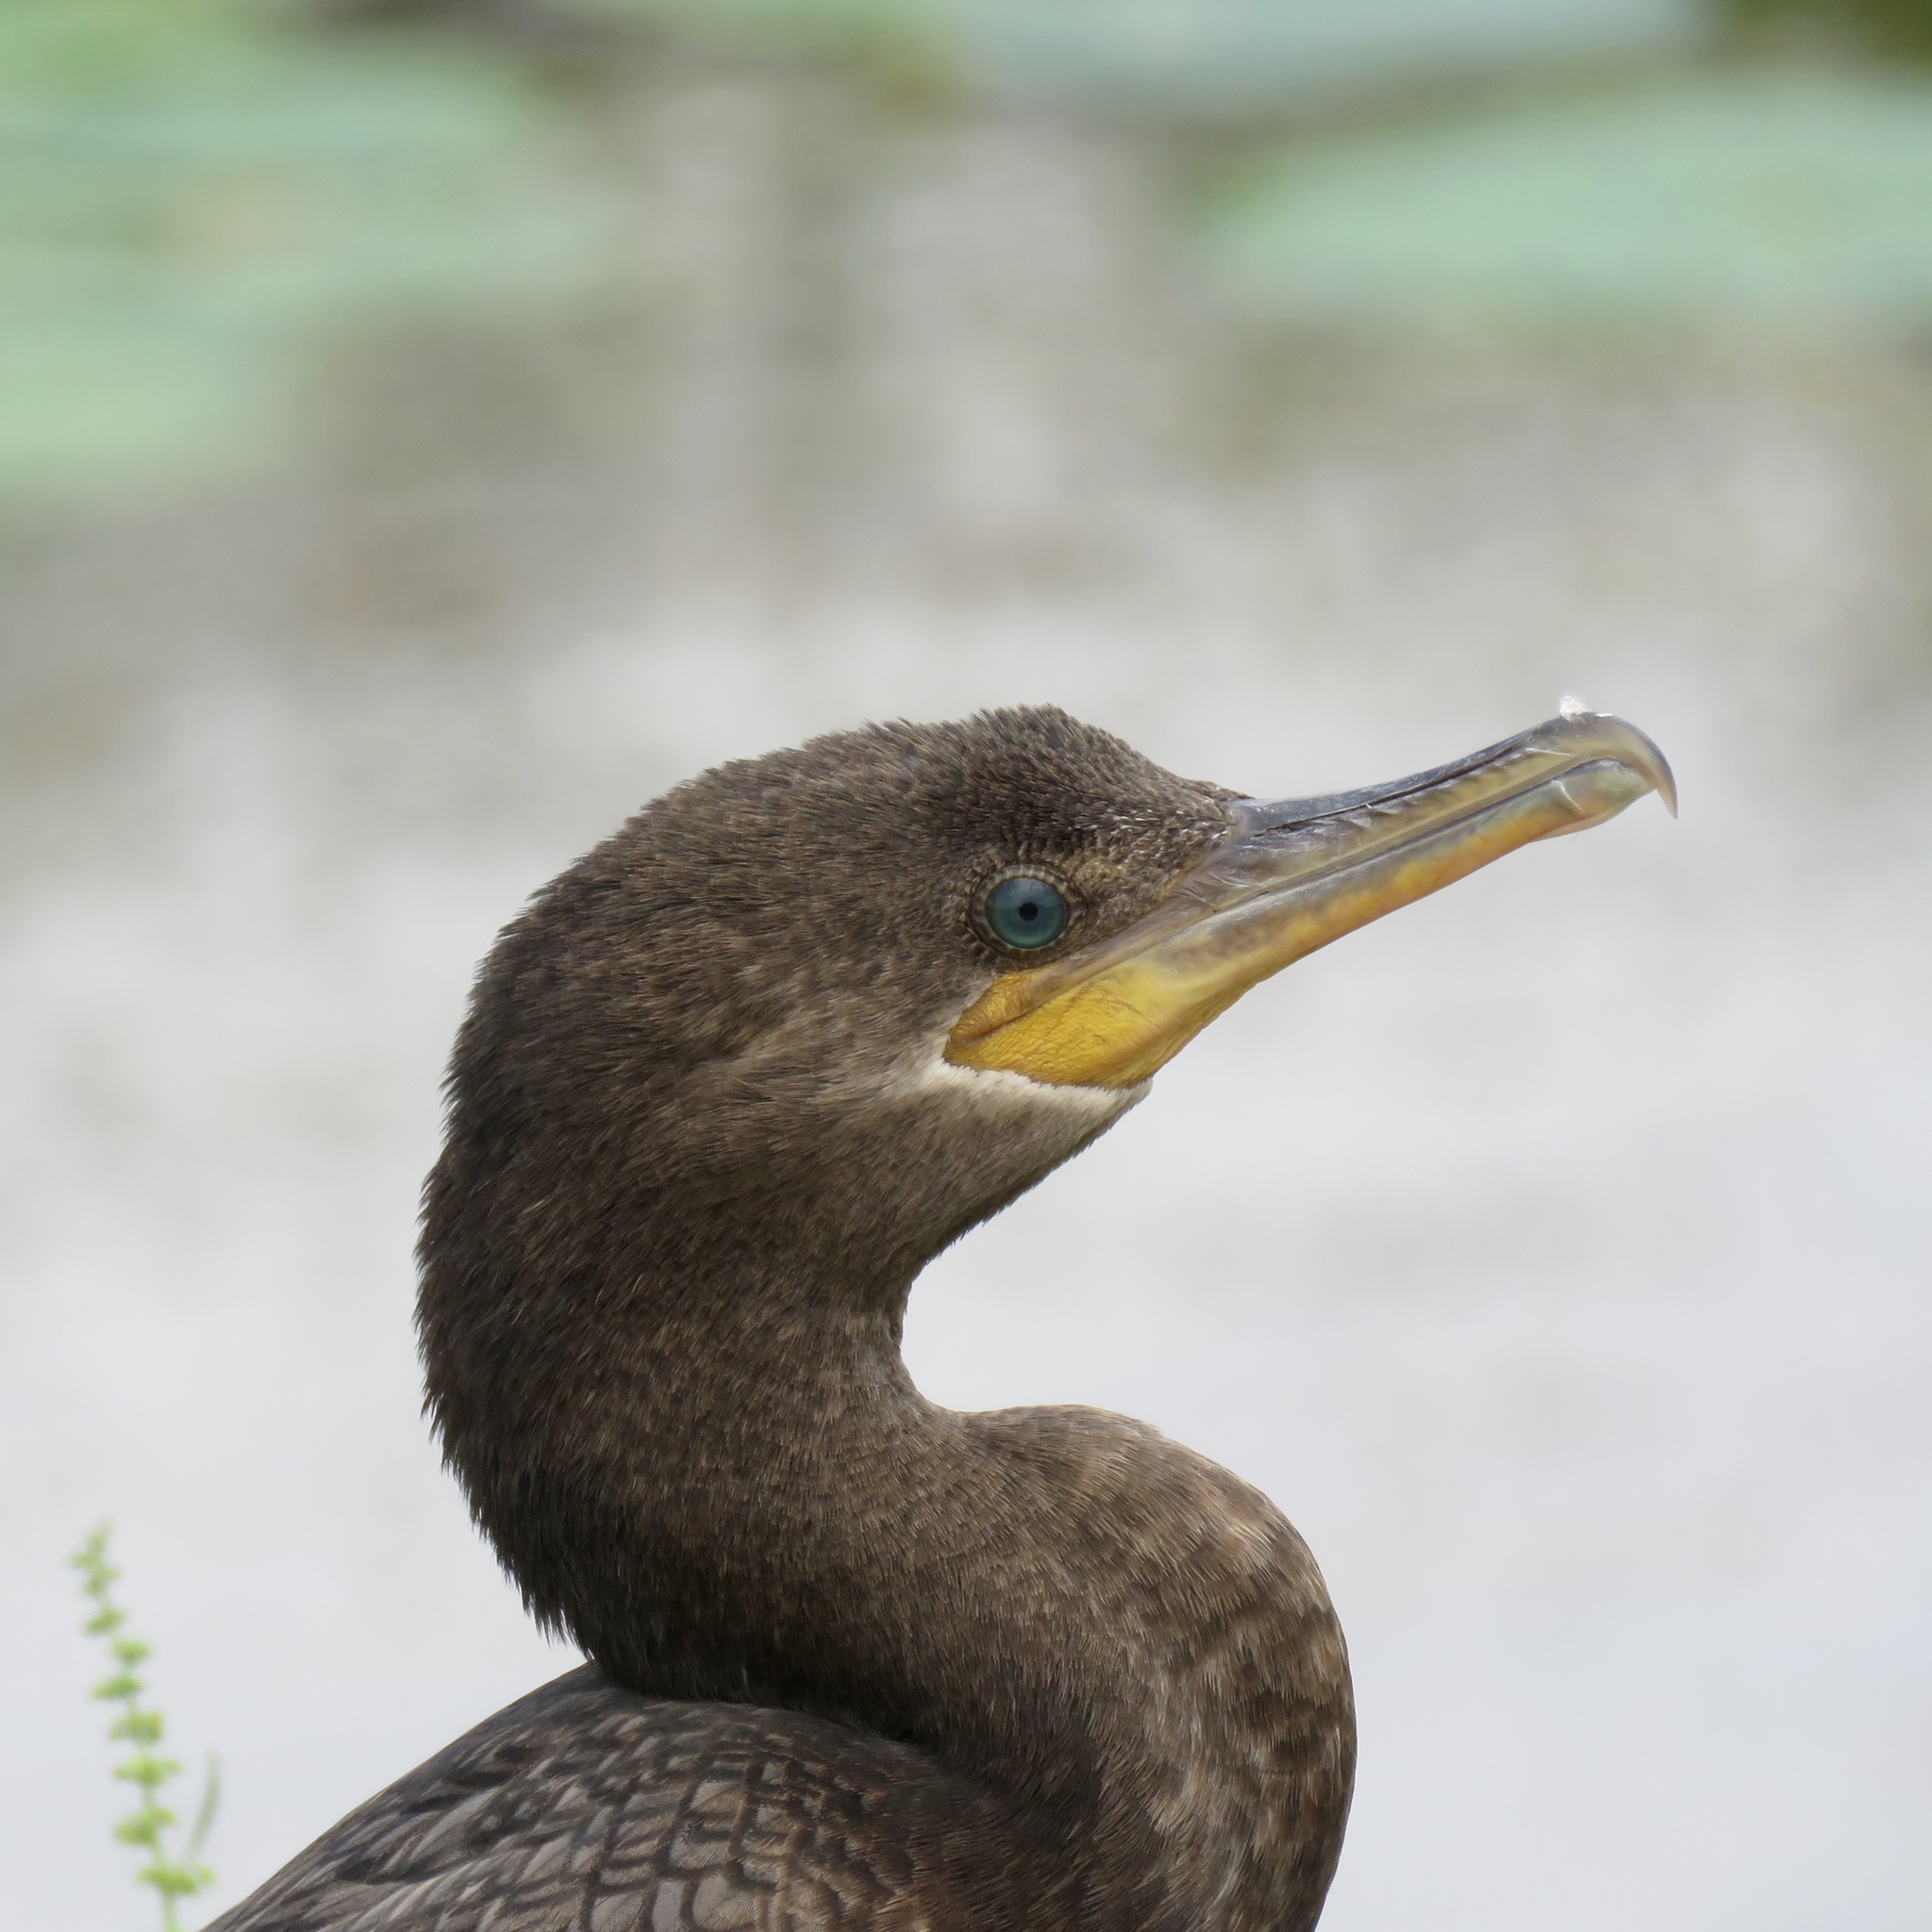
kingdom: Animalia
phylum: Chordata
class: Aves
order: Suliformes
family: Phalacrocoracidae
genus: Phalacrocorax
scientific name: Phalacrocorax brasilianus
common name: Neotropic cormorant
